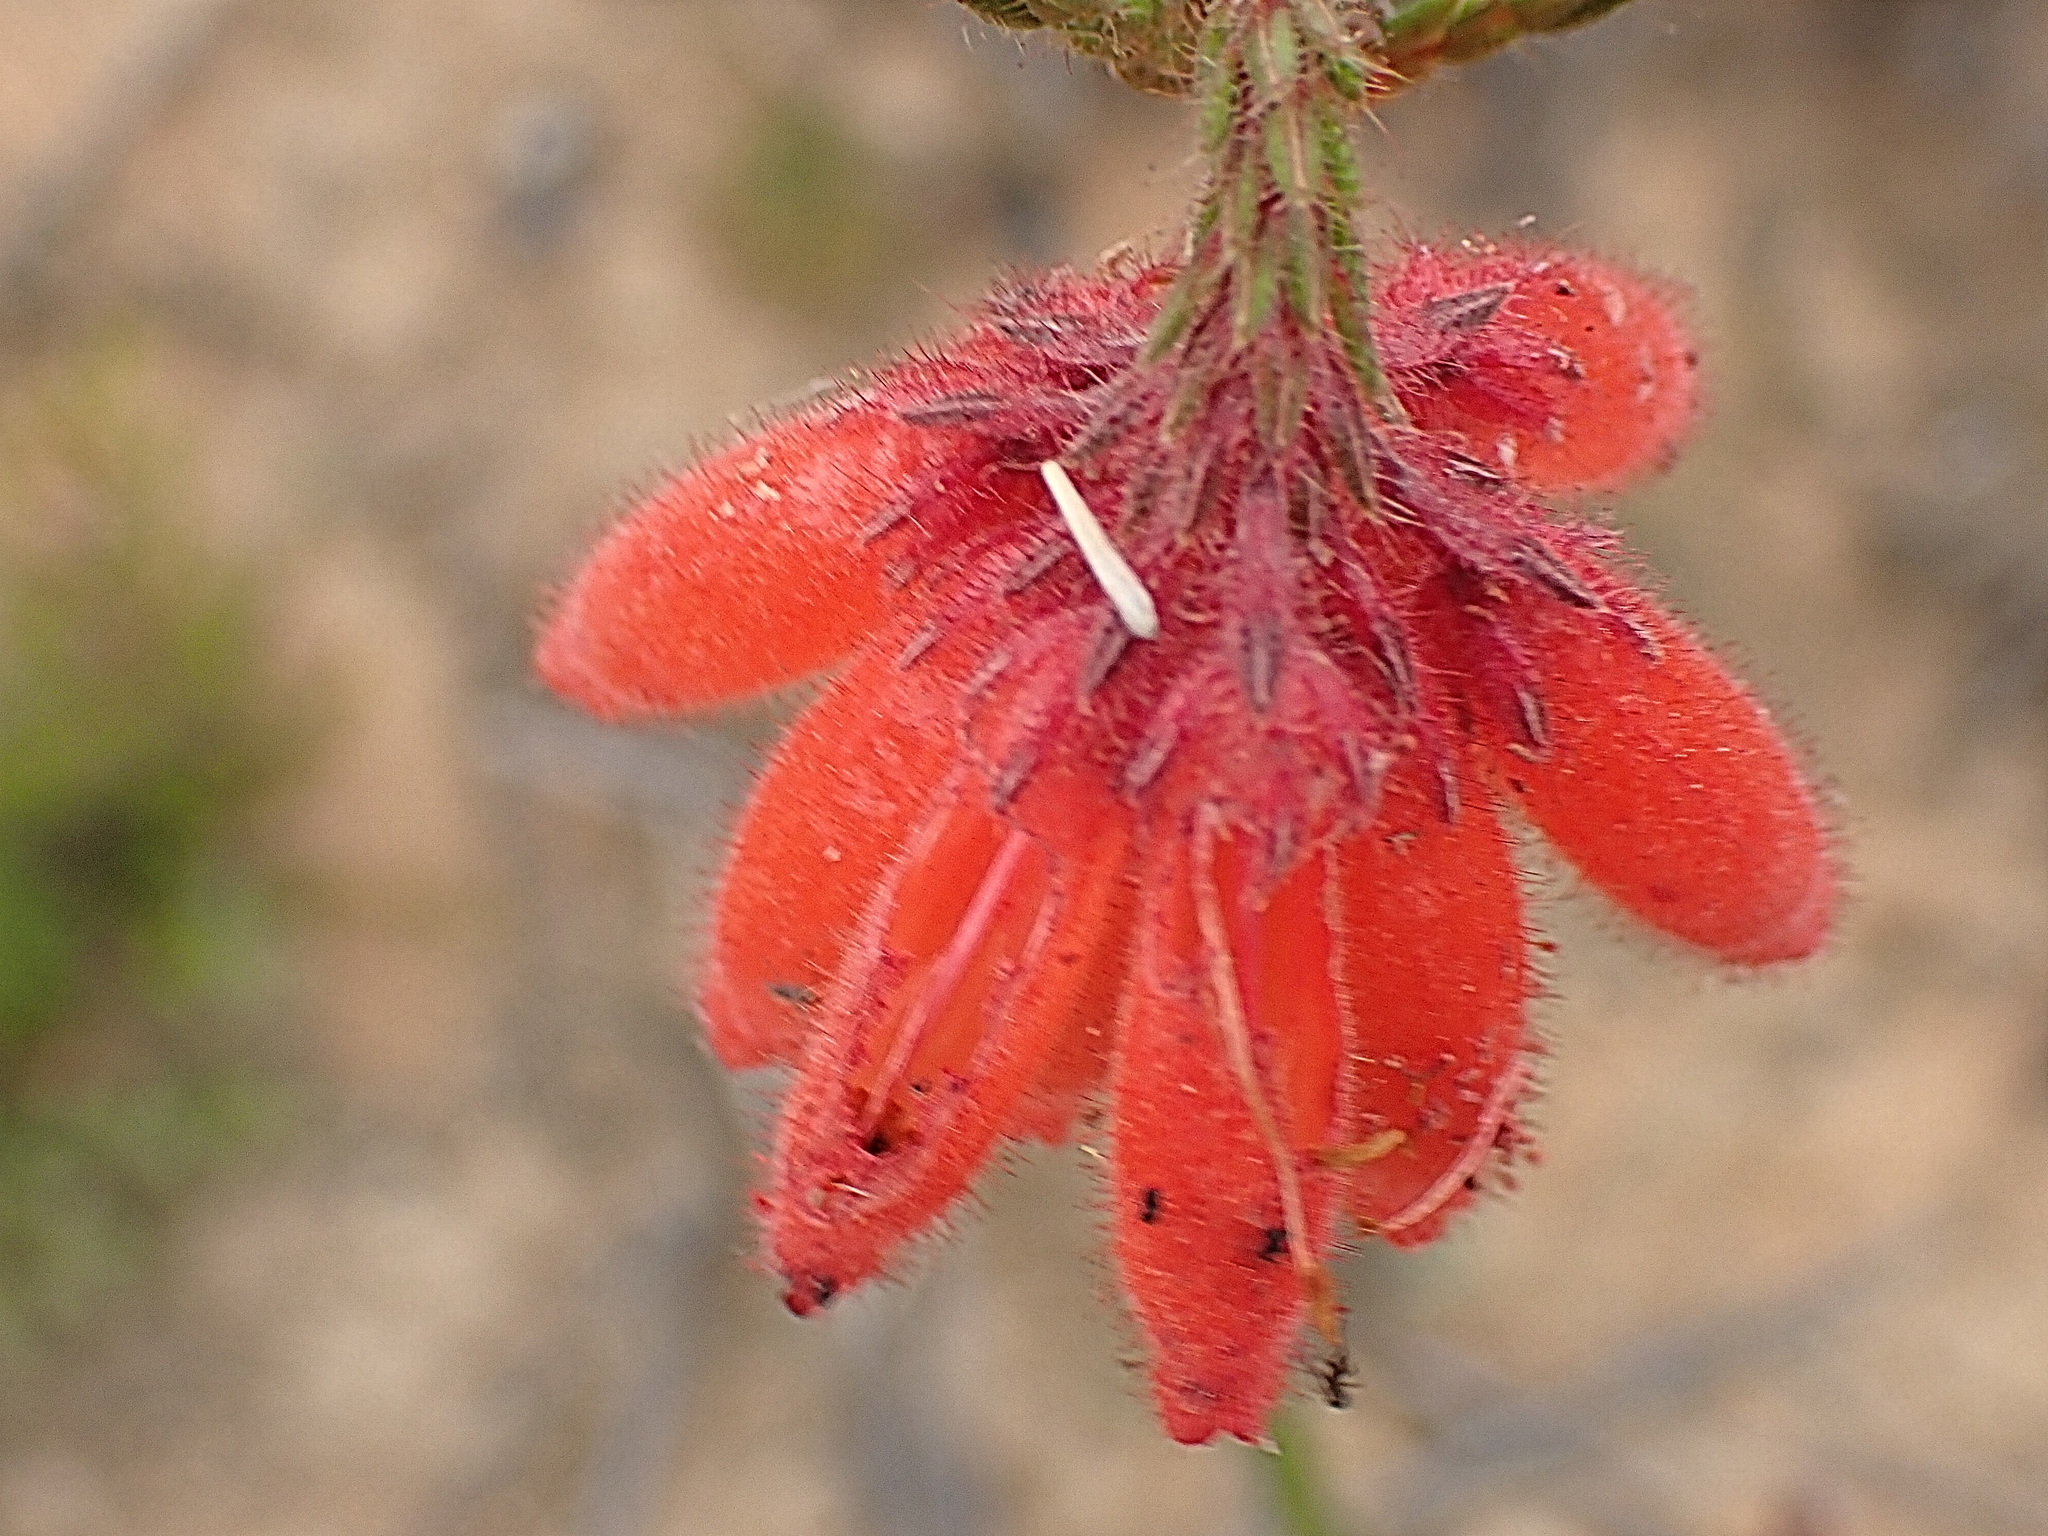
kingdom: Plantae
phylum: Tracheophyta
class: Magnoliopsida
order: Ericales
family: Ericaceae
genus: Erica
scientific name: Erica cerinthoides
